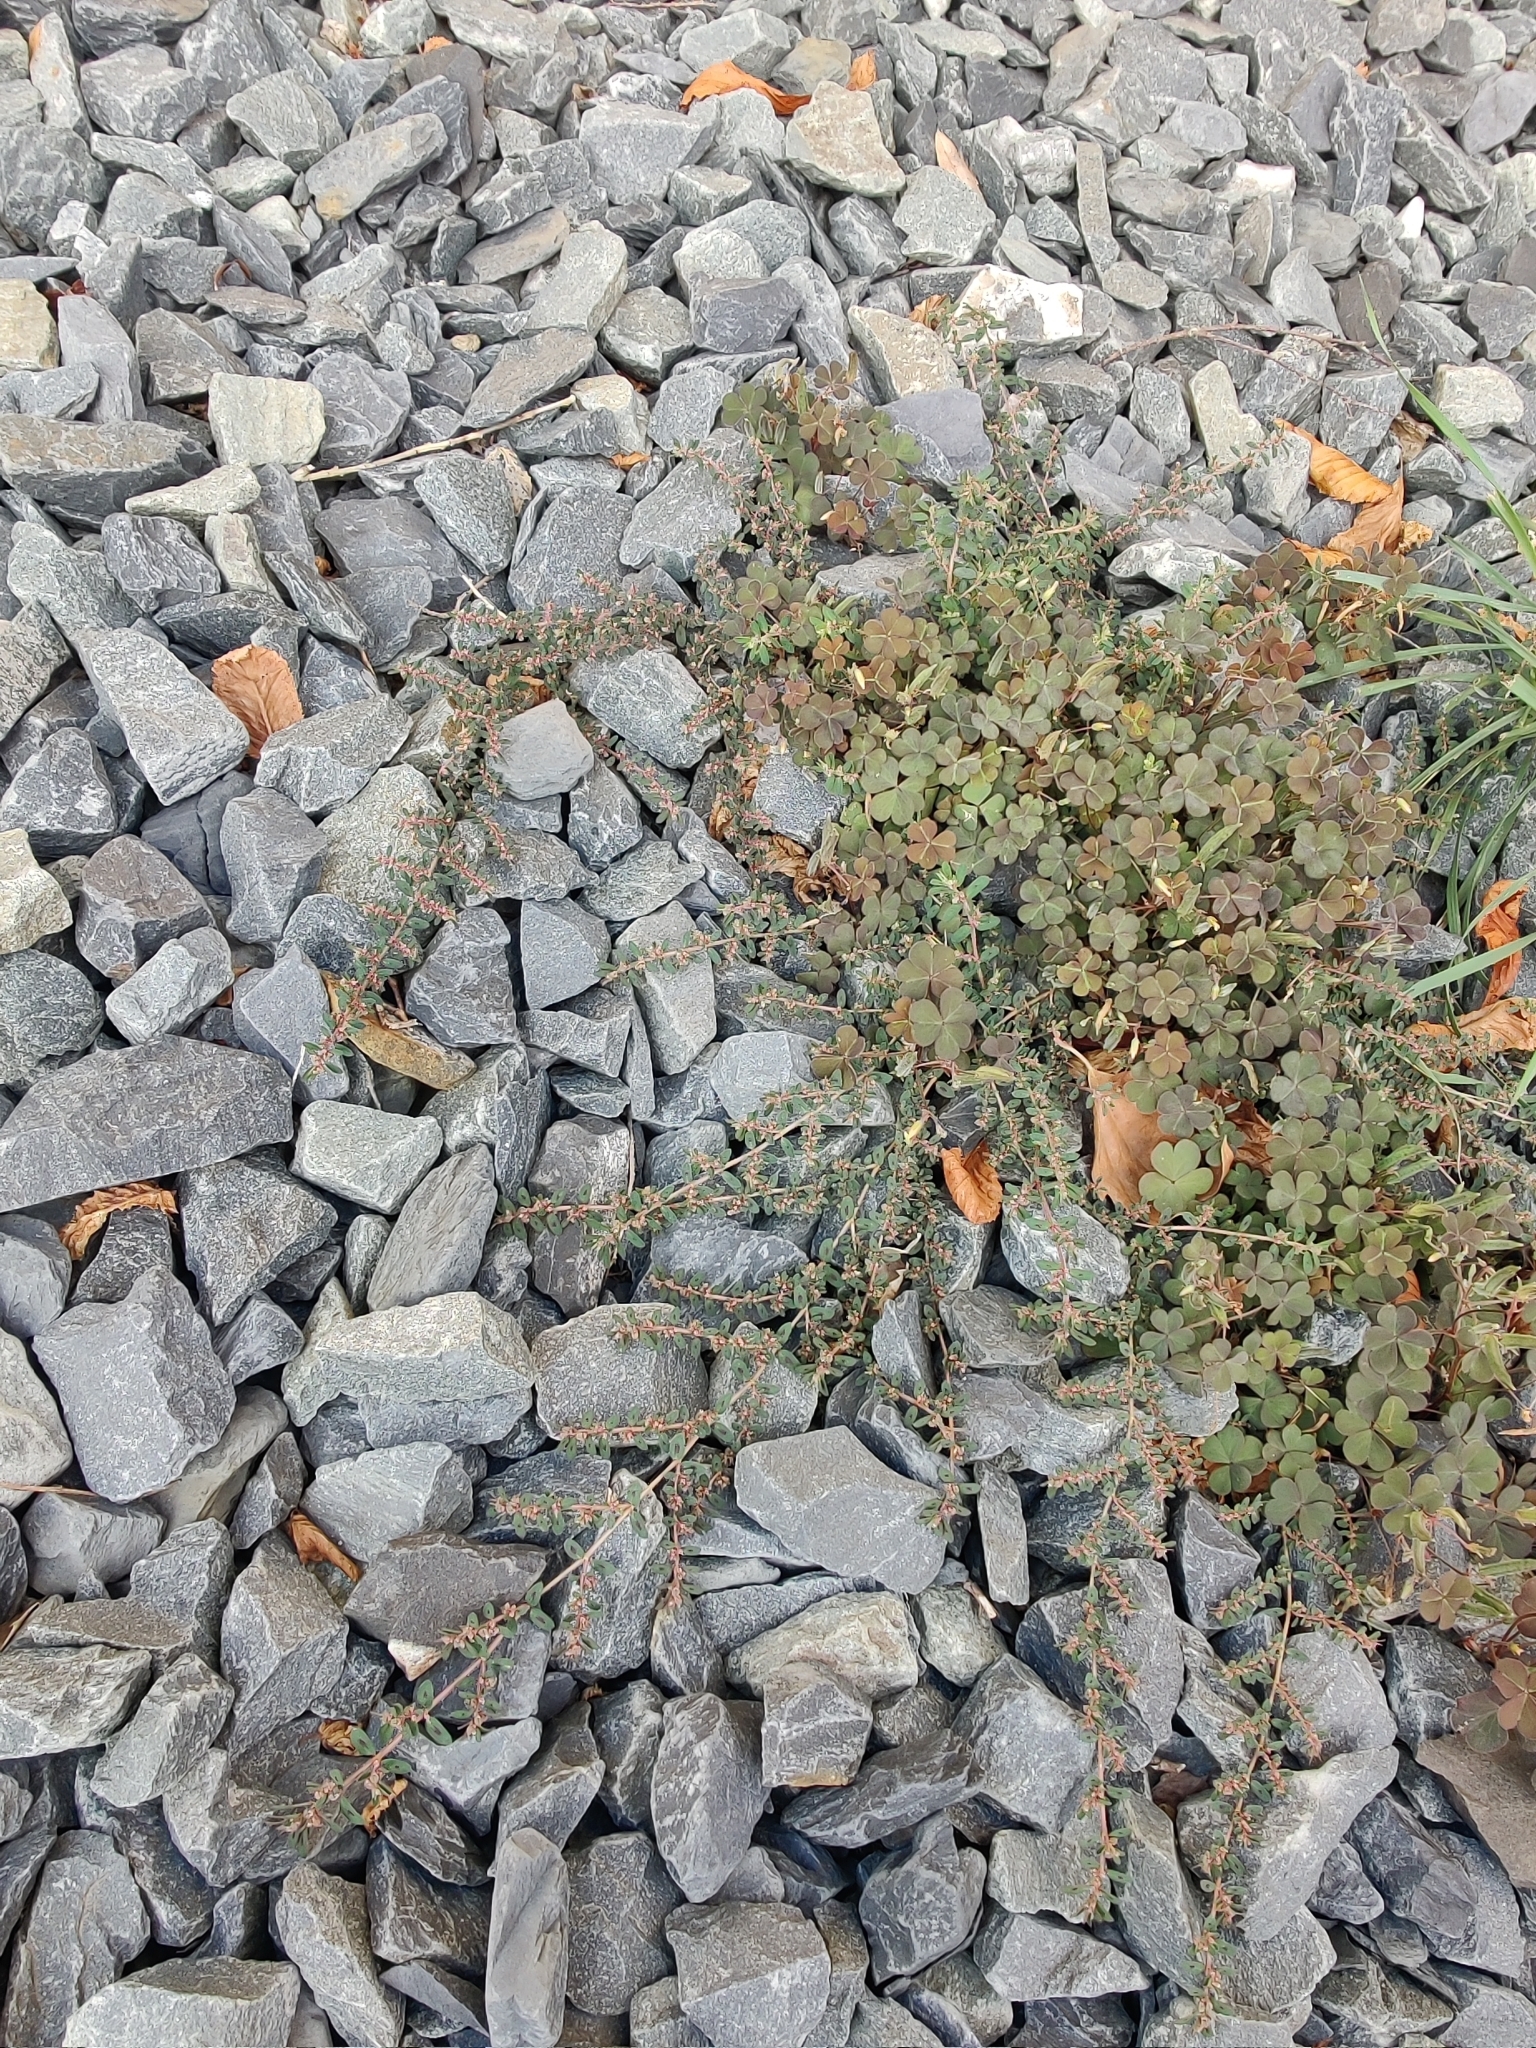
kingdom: Plantae
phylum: Tracheophyta
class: Magnoliopsida
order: Malpighiales
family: Euphorbiaceae
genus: Euphorbia
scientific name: Euphorbia maculata
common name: Spotted spurge
